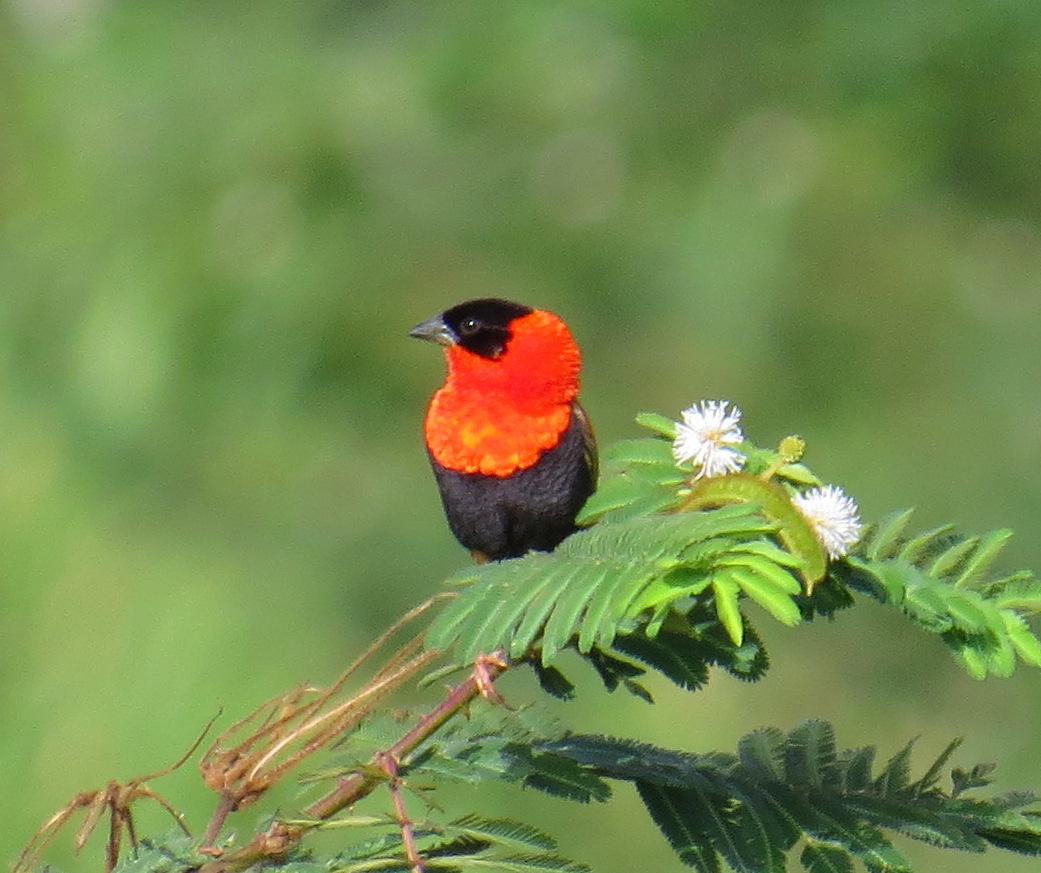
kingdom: Animalia
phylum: Chordata
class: Aves
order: Passeriformes
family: Ploceidae
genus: Euplectes
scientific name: Euplectes franciscanus
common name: Northern red bishop
